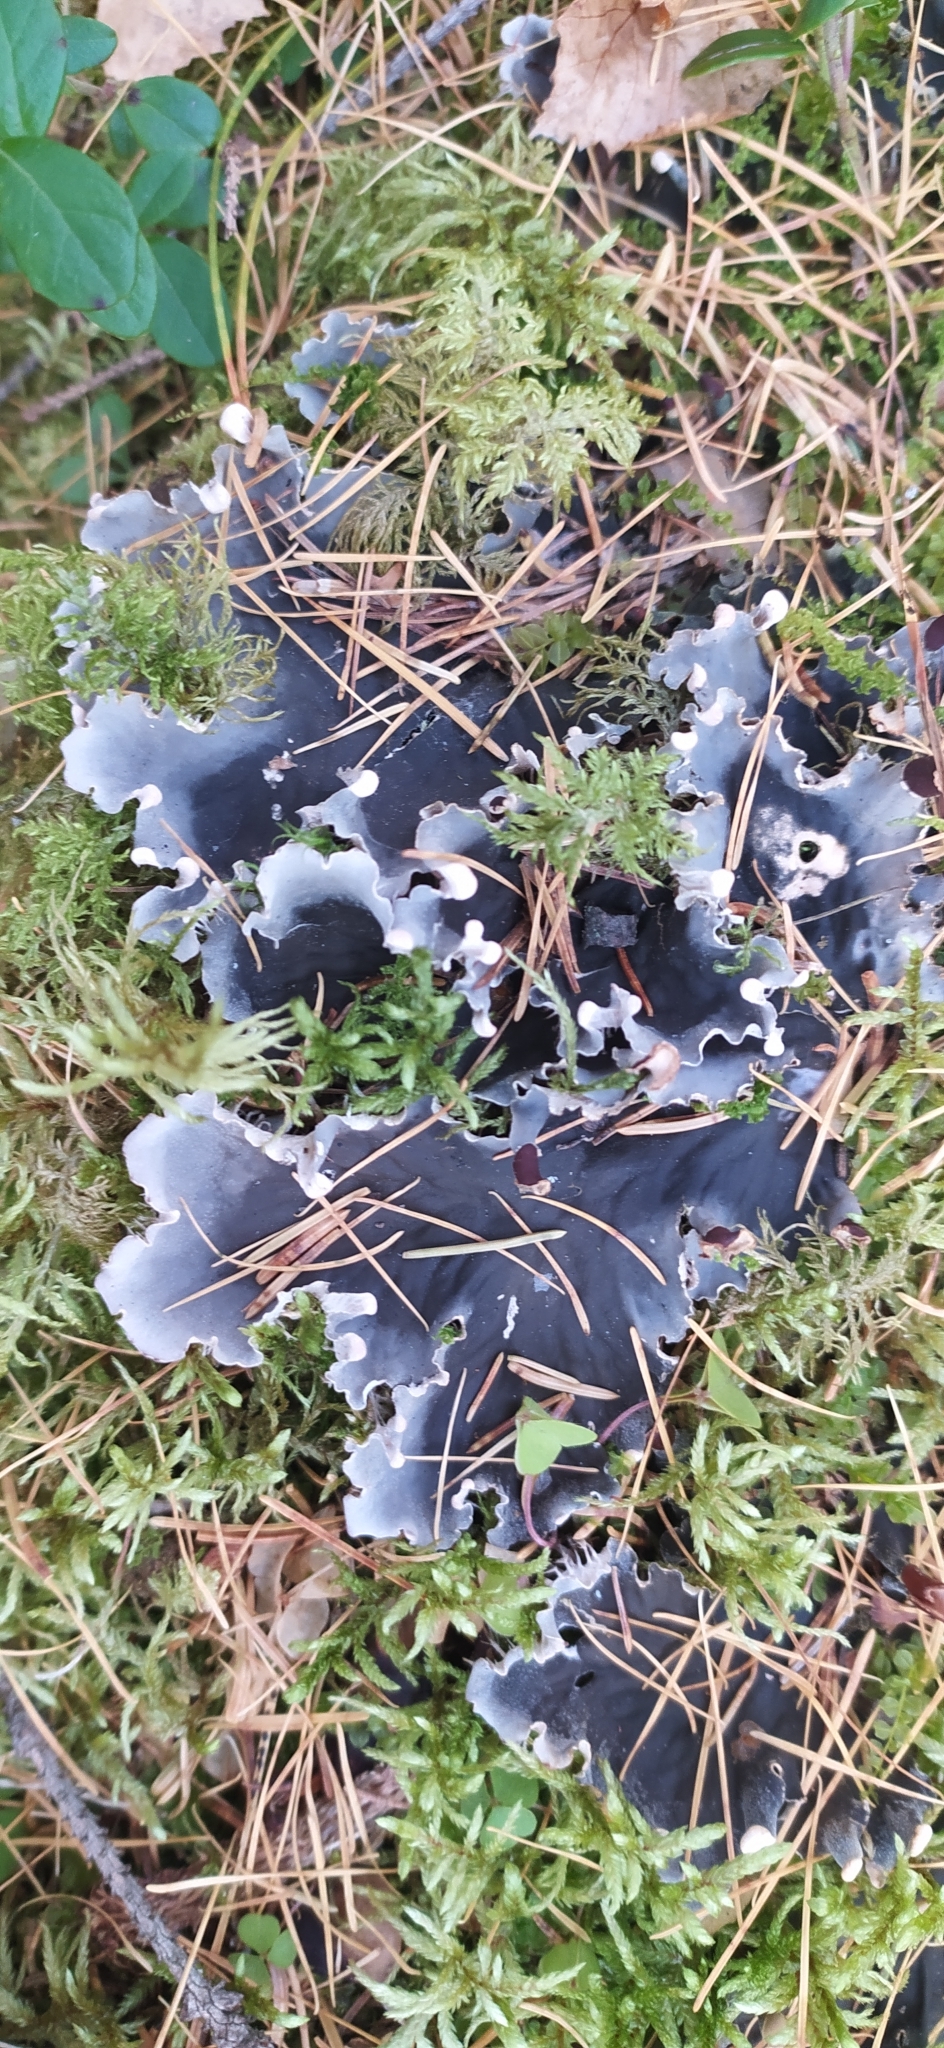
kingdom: Fungi
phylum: Ascomycota
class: Lecanoromycetes
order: Peltigerales
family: Peltigeraceae
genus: Peltigera
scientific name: Peltigera praetextata
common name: Scaly dog-lichen
